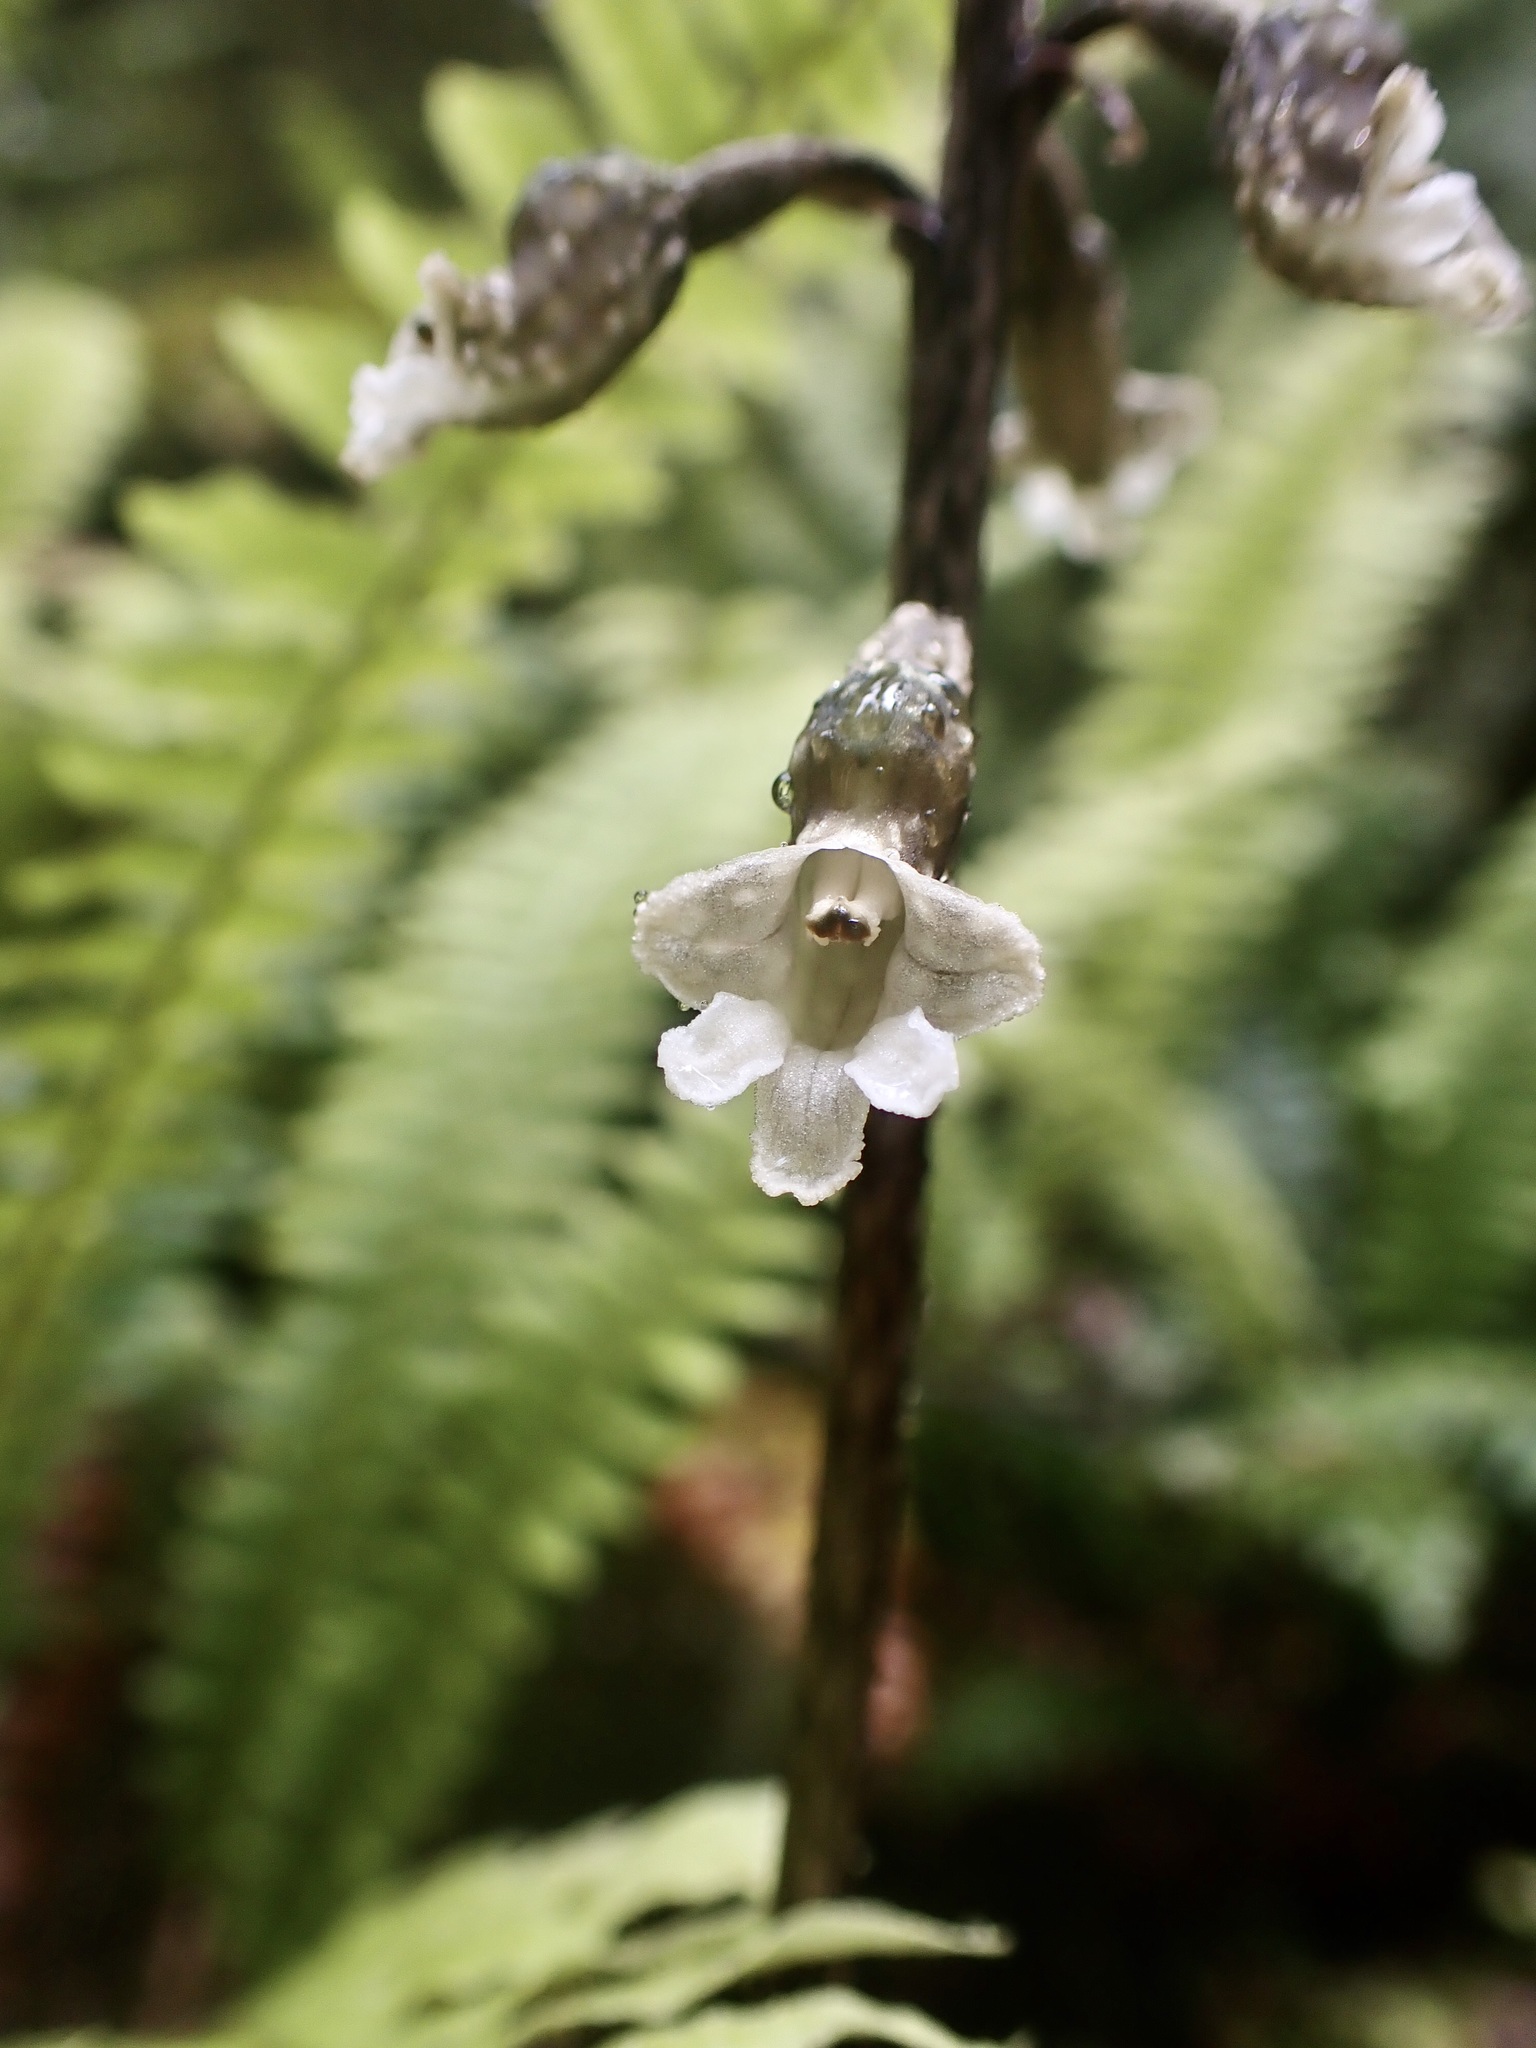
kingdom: Plantae
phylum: Tracheophyta
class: Liliopsida
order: Asparagales
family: Orchidaceae
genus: Gastrodia
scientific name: Gastrodia cunninghamii
